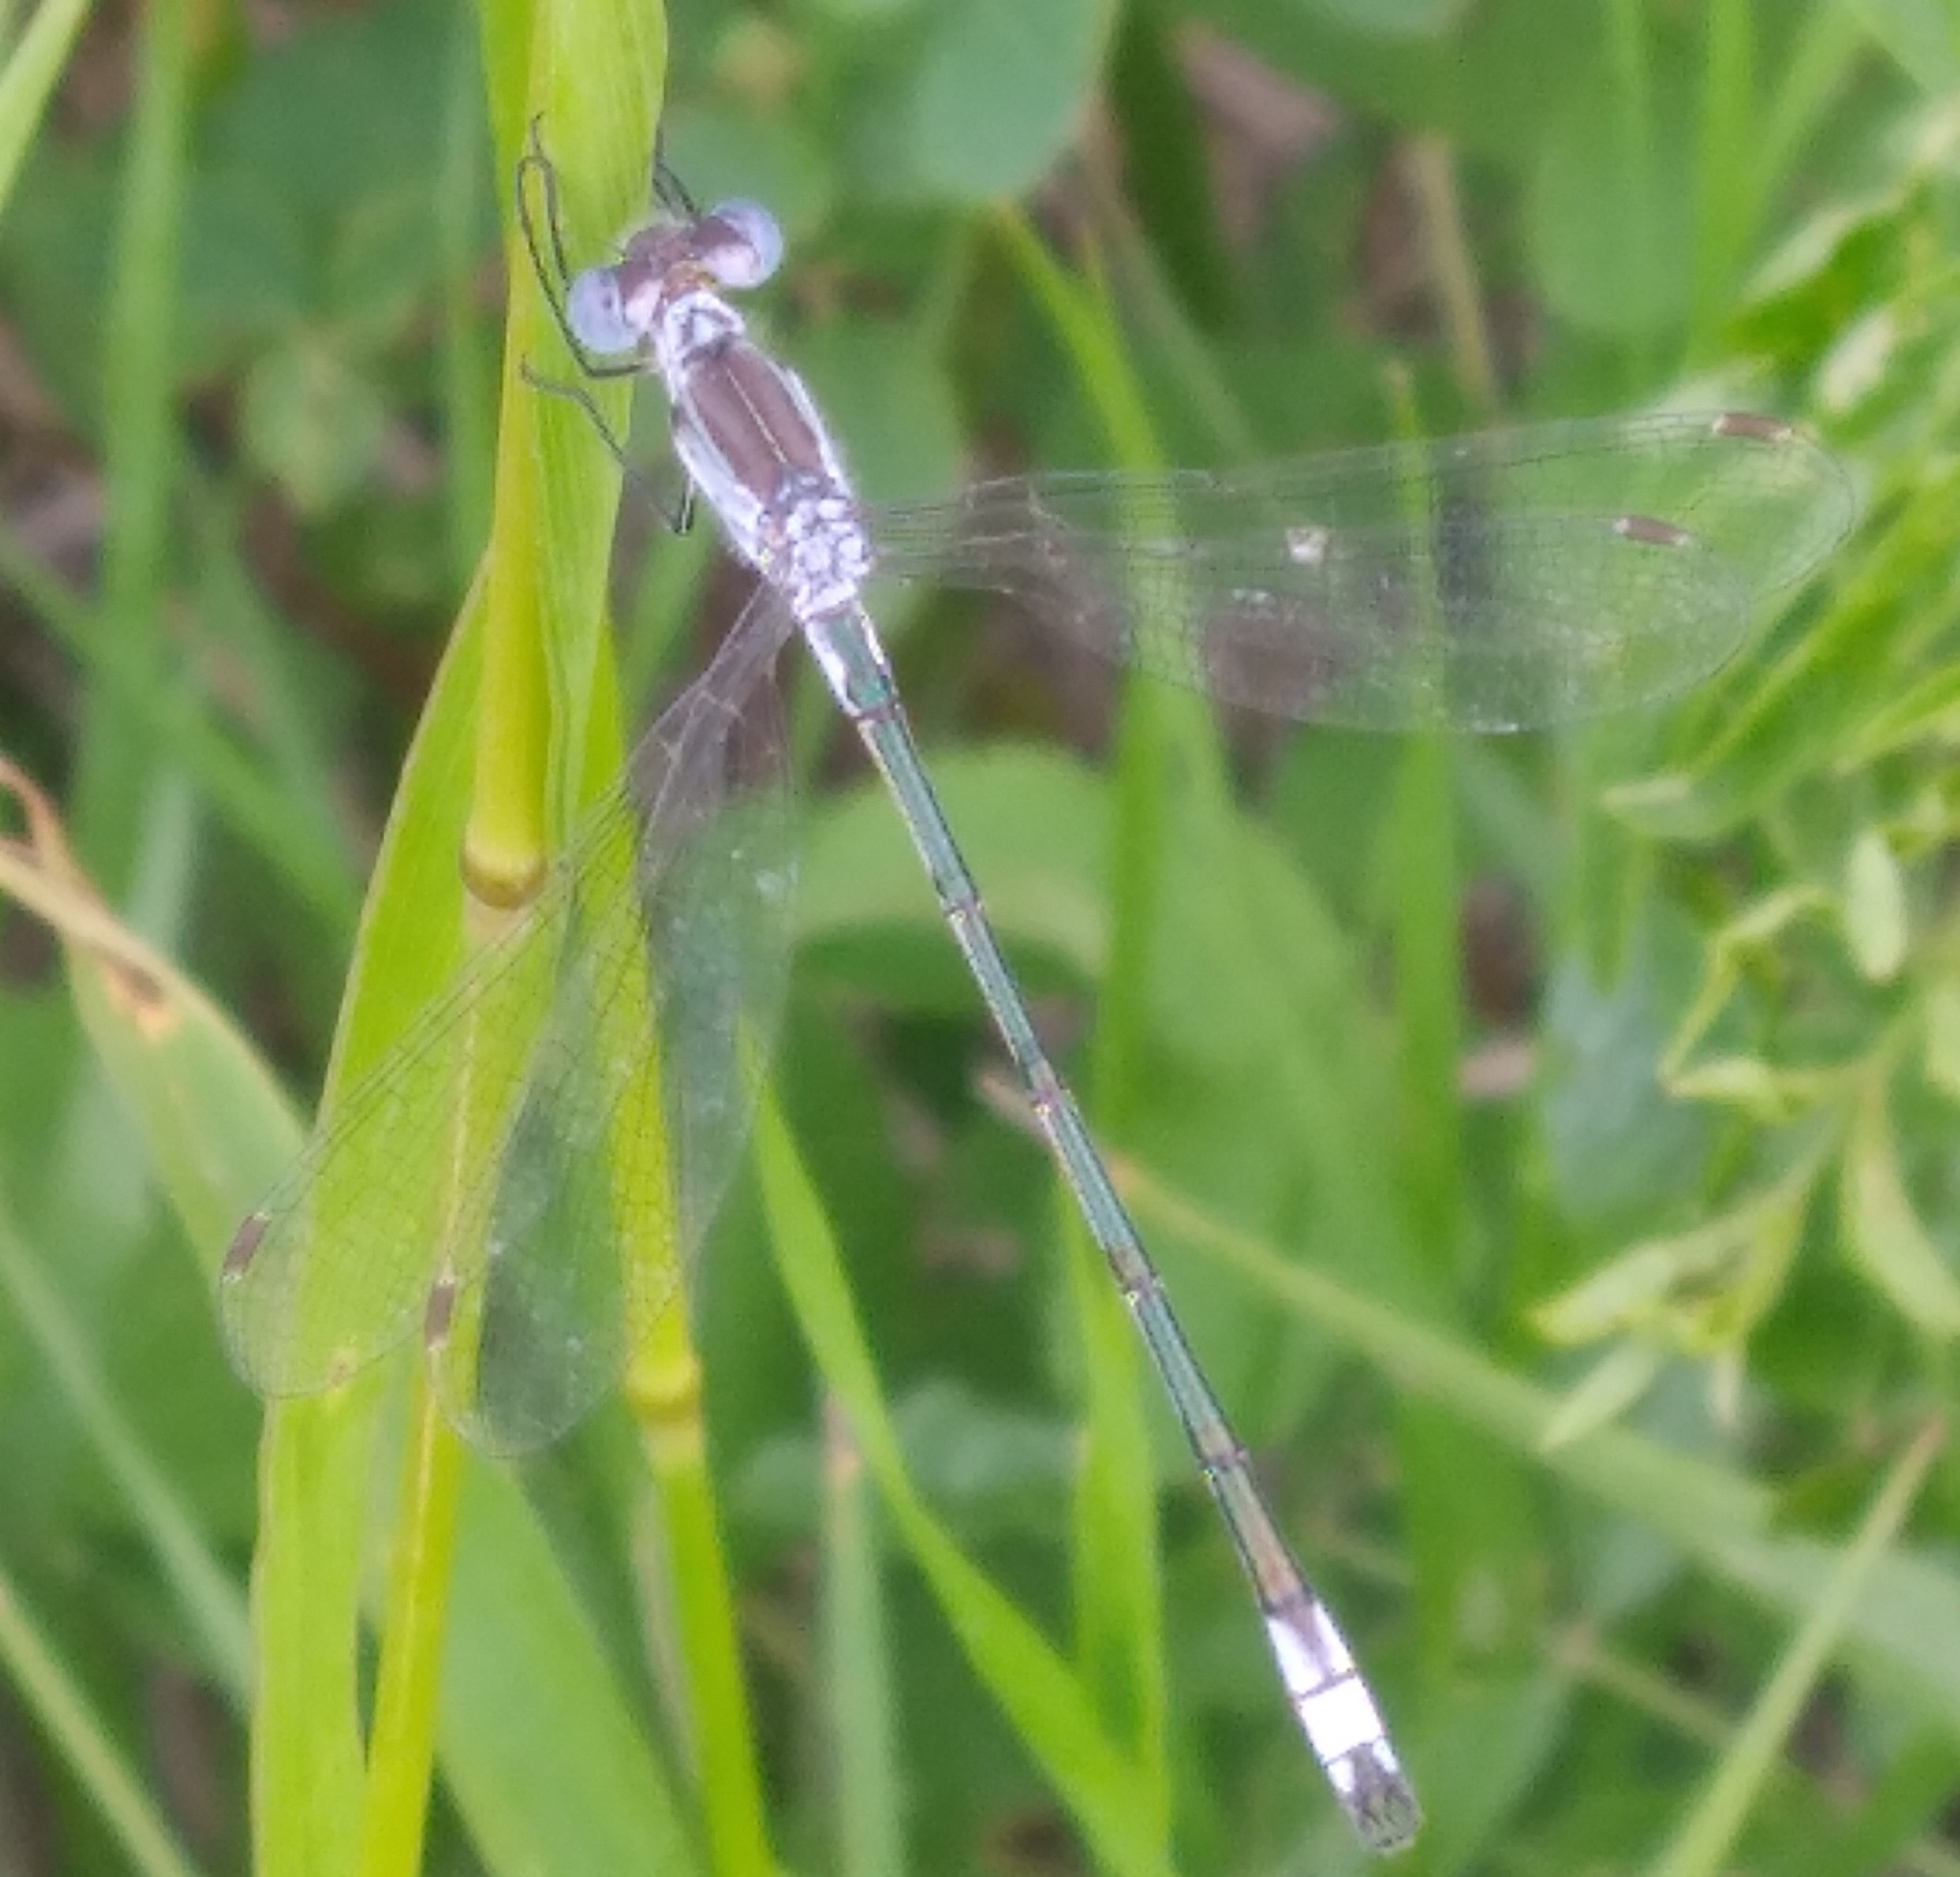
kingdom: Animalia
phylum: Arthropoda
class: Insecta
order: Odonata
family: Lestidae
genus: Lestes
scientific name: Lestes unguiculatus
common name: Lyre-tipped spreadwing
